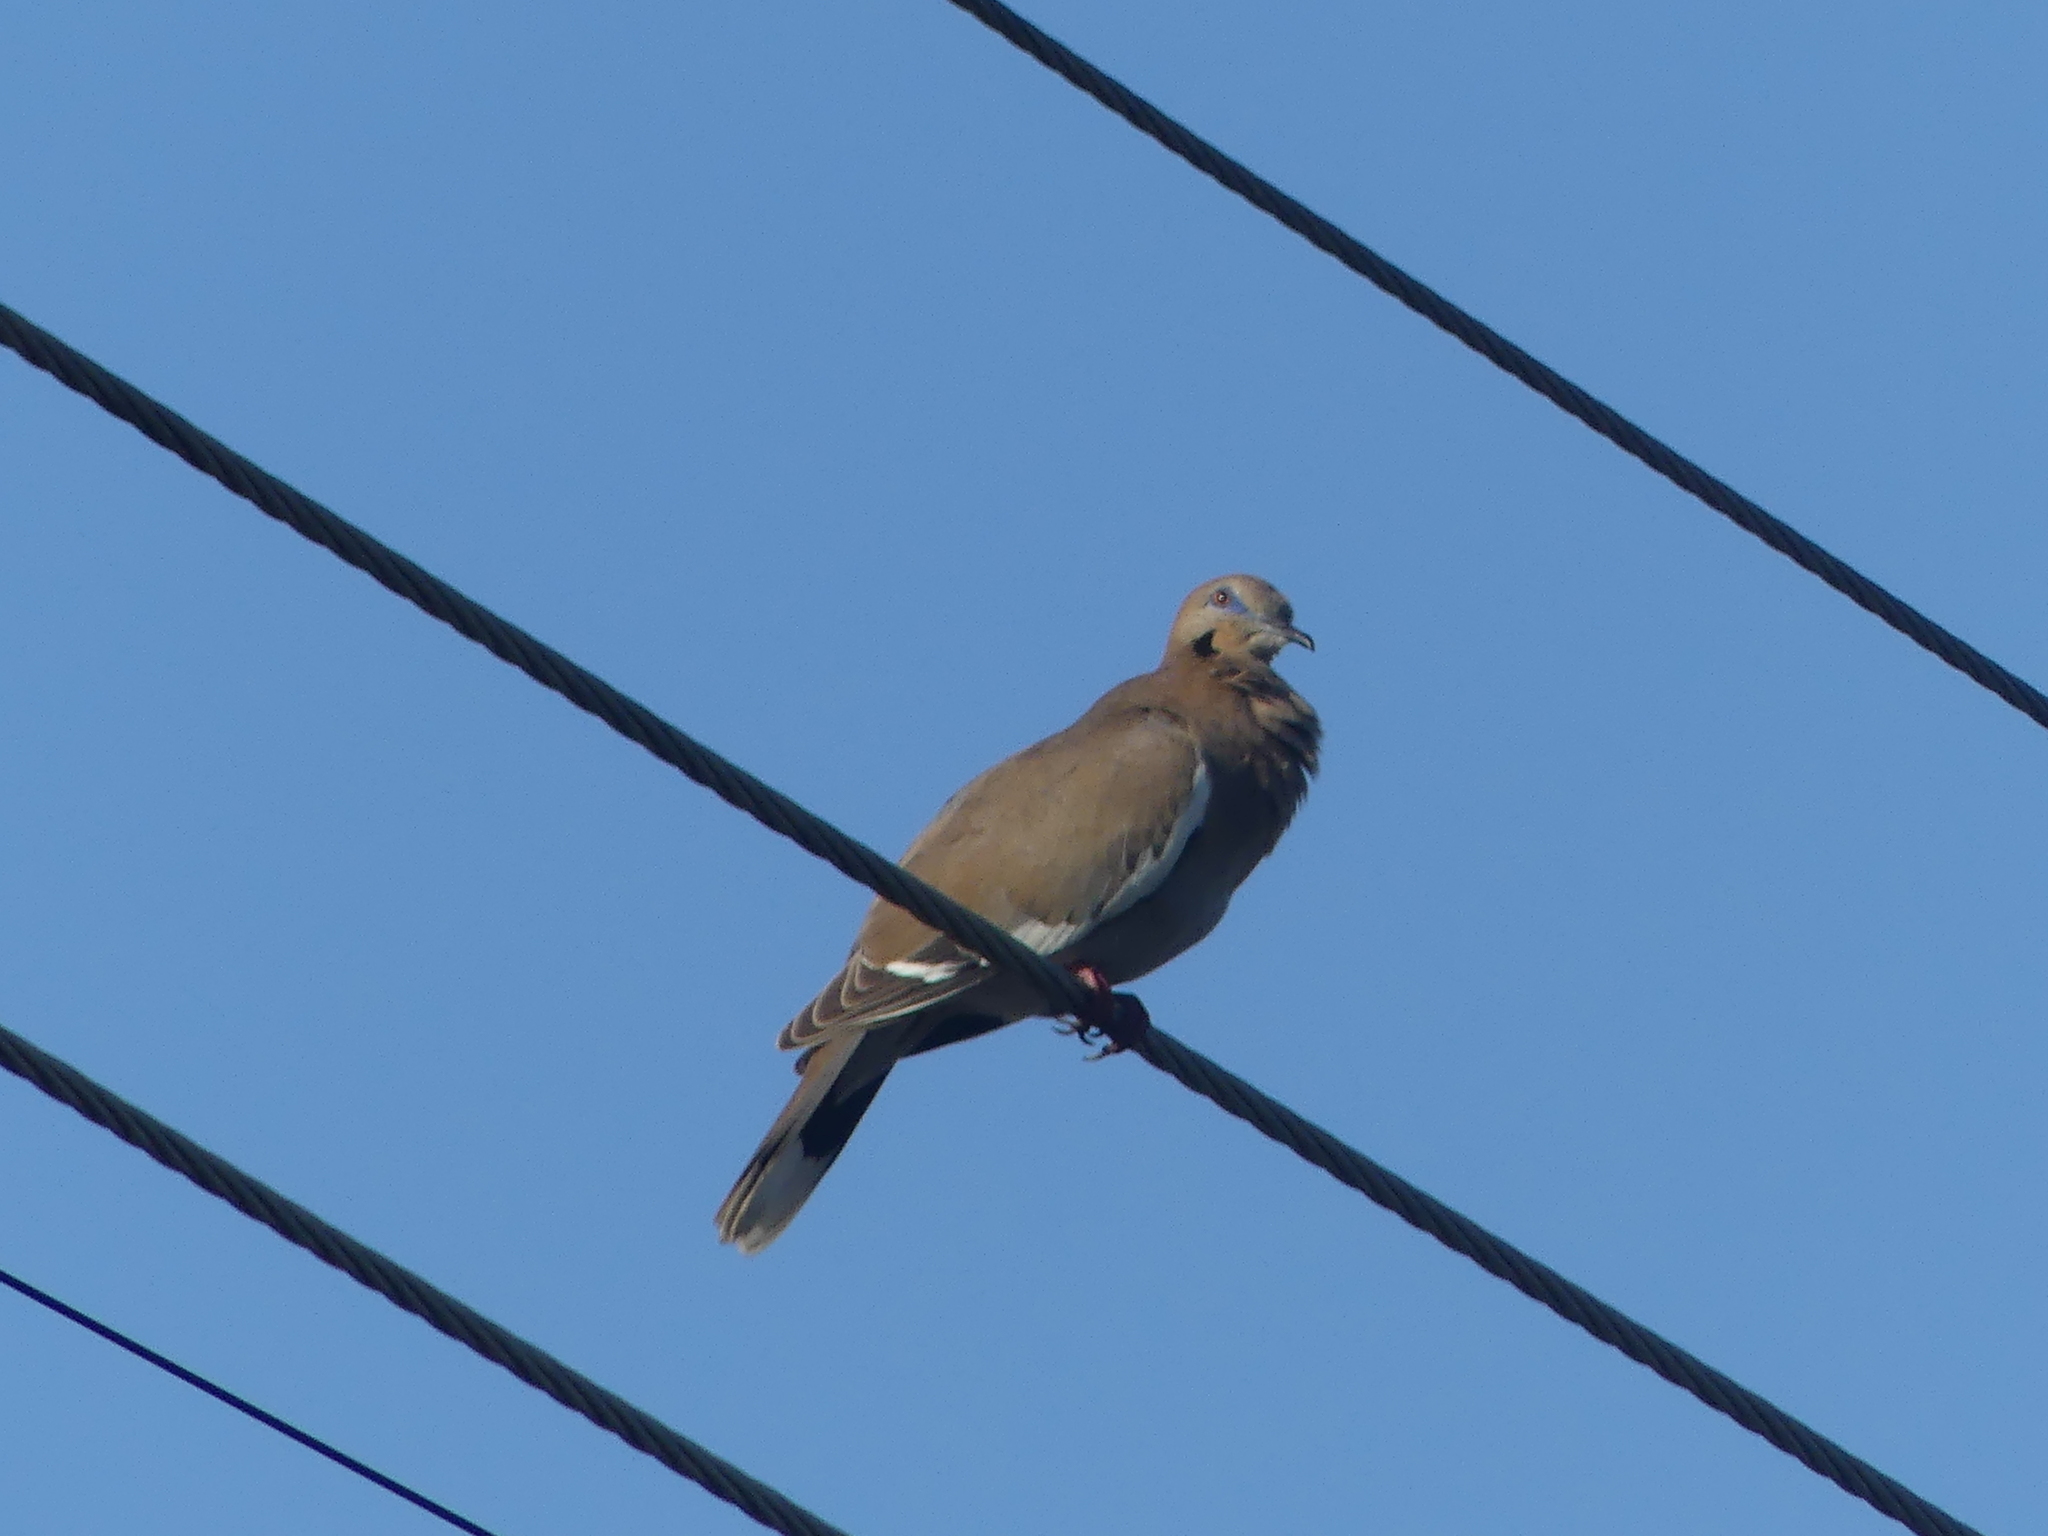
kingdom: Animalia
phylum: Chordata
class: Aves
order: Columbiformes
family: Columbidae
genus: Zenaida
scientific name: Zenaida asiatica
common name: White-winged dove
